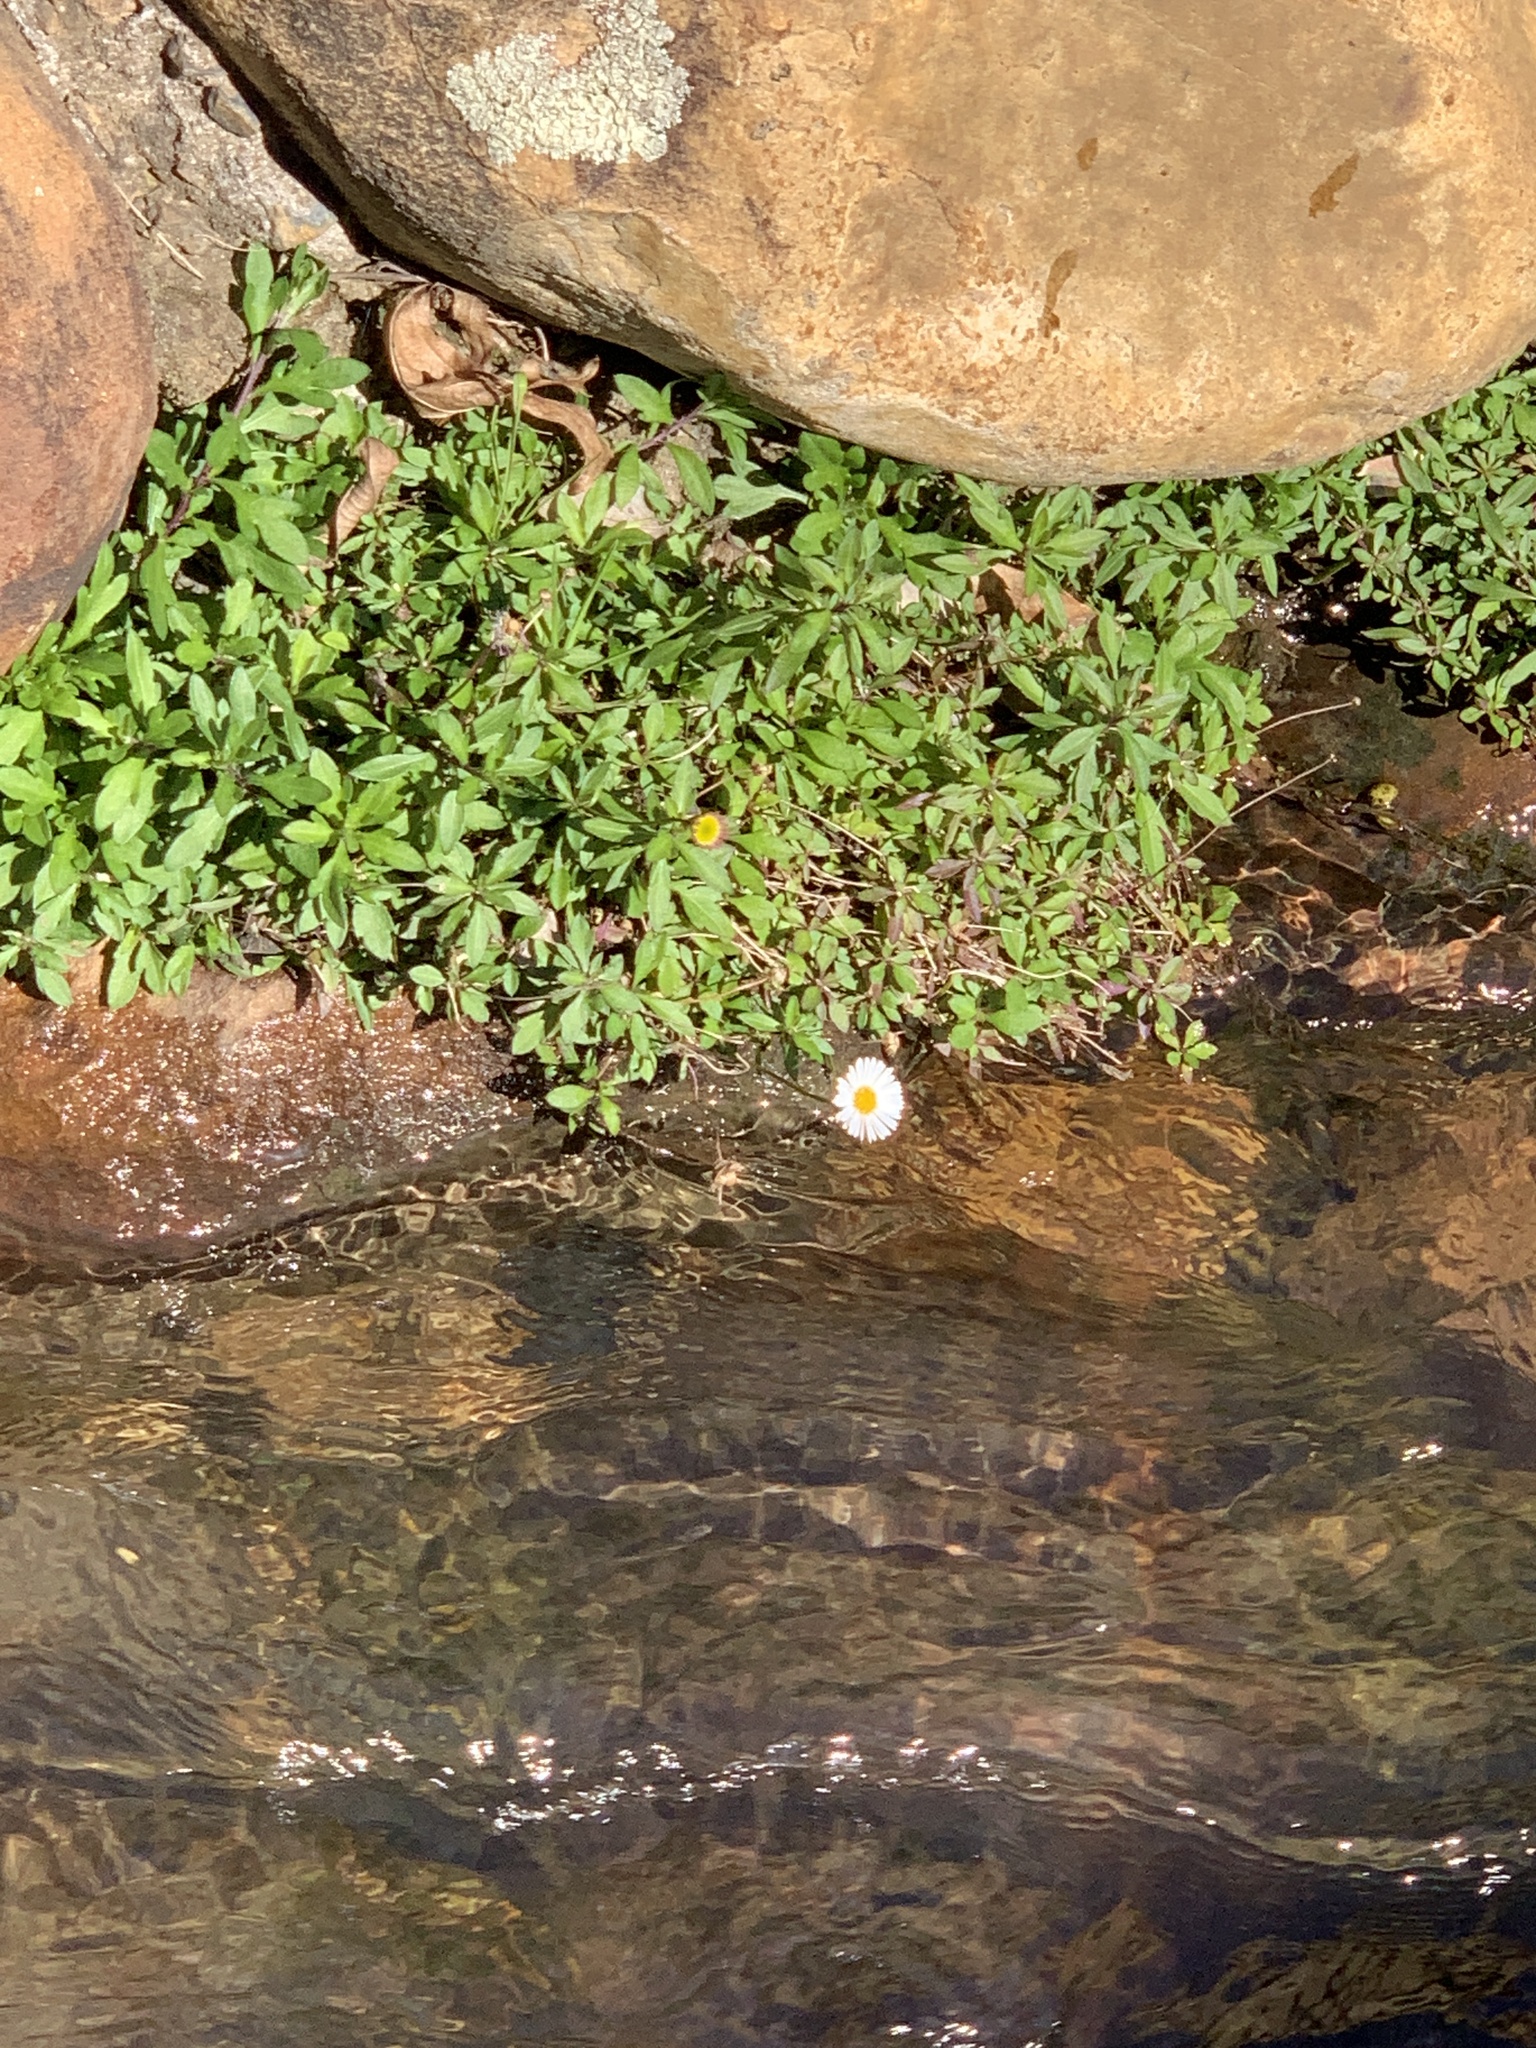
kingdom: Plantae
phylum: Tracheophyta
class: Magnoliopsida
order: Asterales
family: Asteraceae
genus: Erigeron
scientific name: Erigeron karvinskianus
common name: Mexican fleabane
